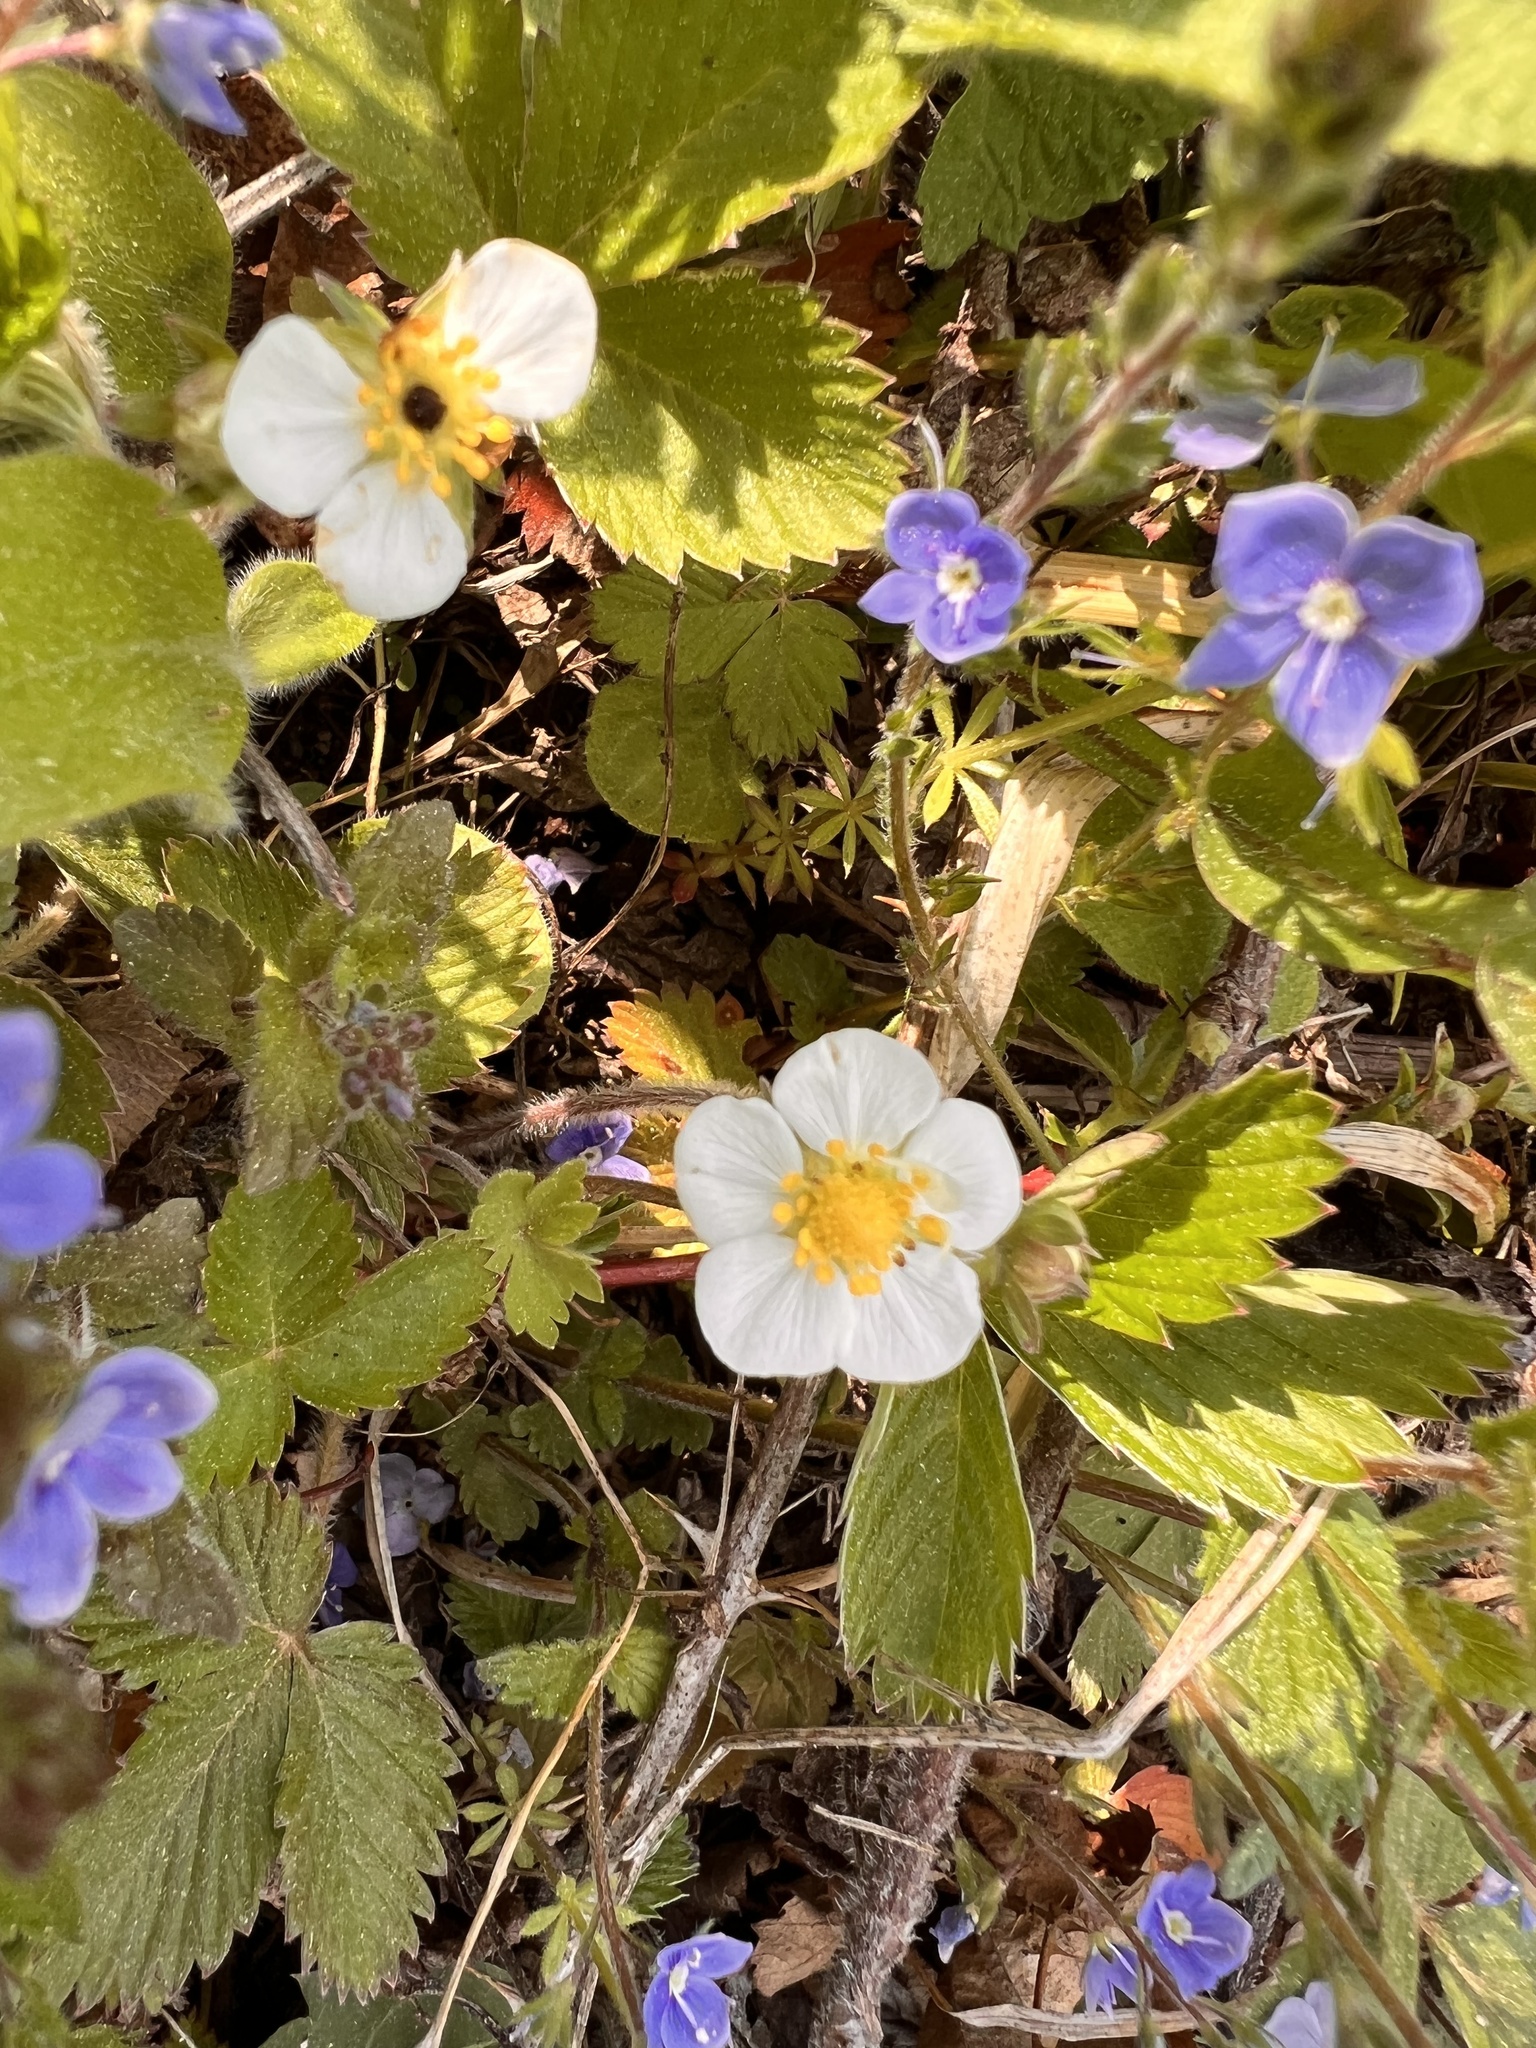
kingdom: Plantae
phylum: Tracheophyta
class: Magnoliopsida
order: Rosales
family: Rosaceae
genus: Fragaria
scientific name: Fragaria vesca
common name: Wild strawberry
